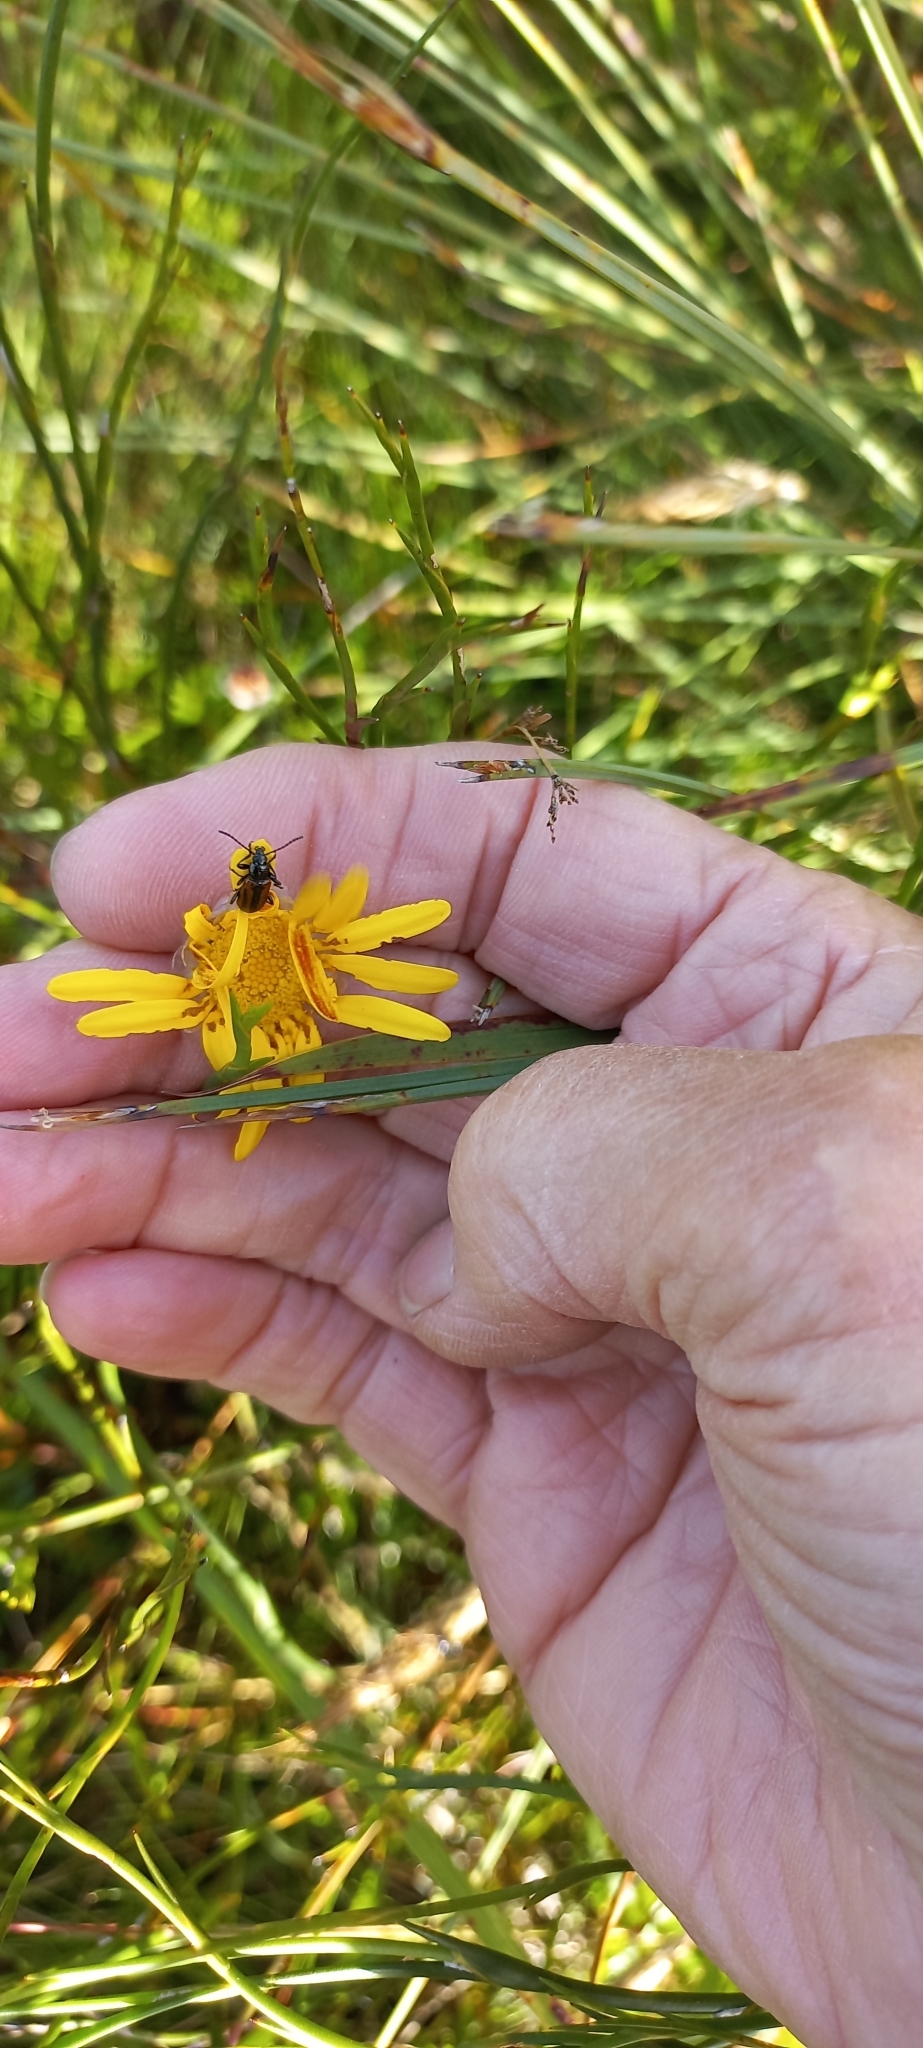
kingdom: Animalia
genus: Neoeutrapela
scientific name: Neoeutrapela
